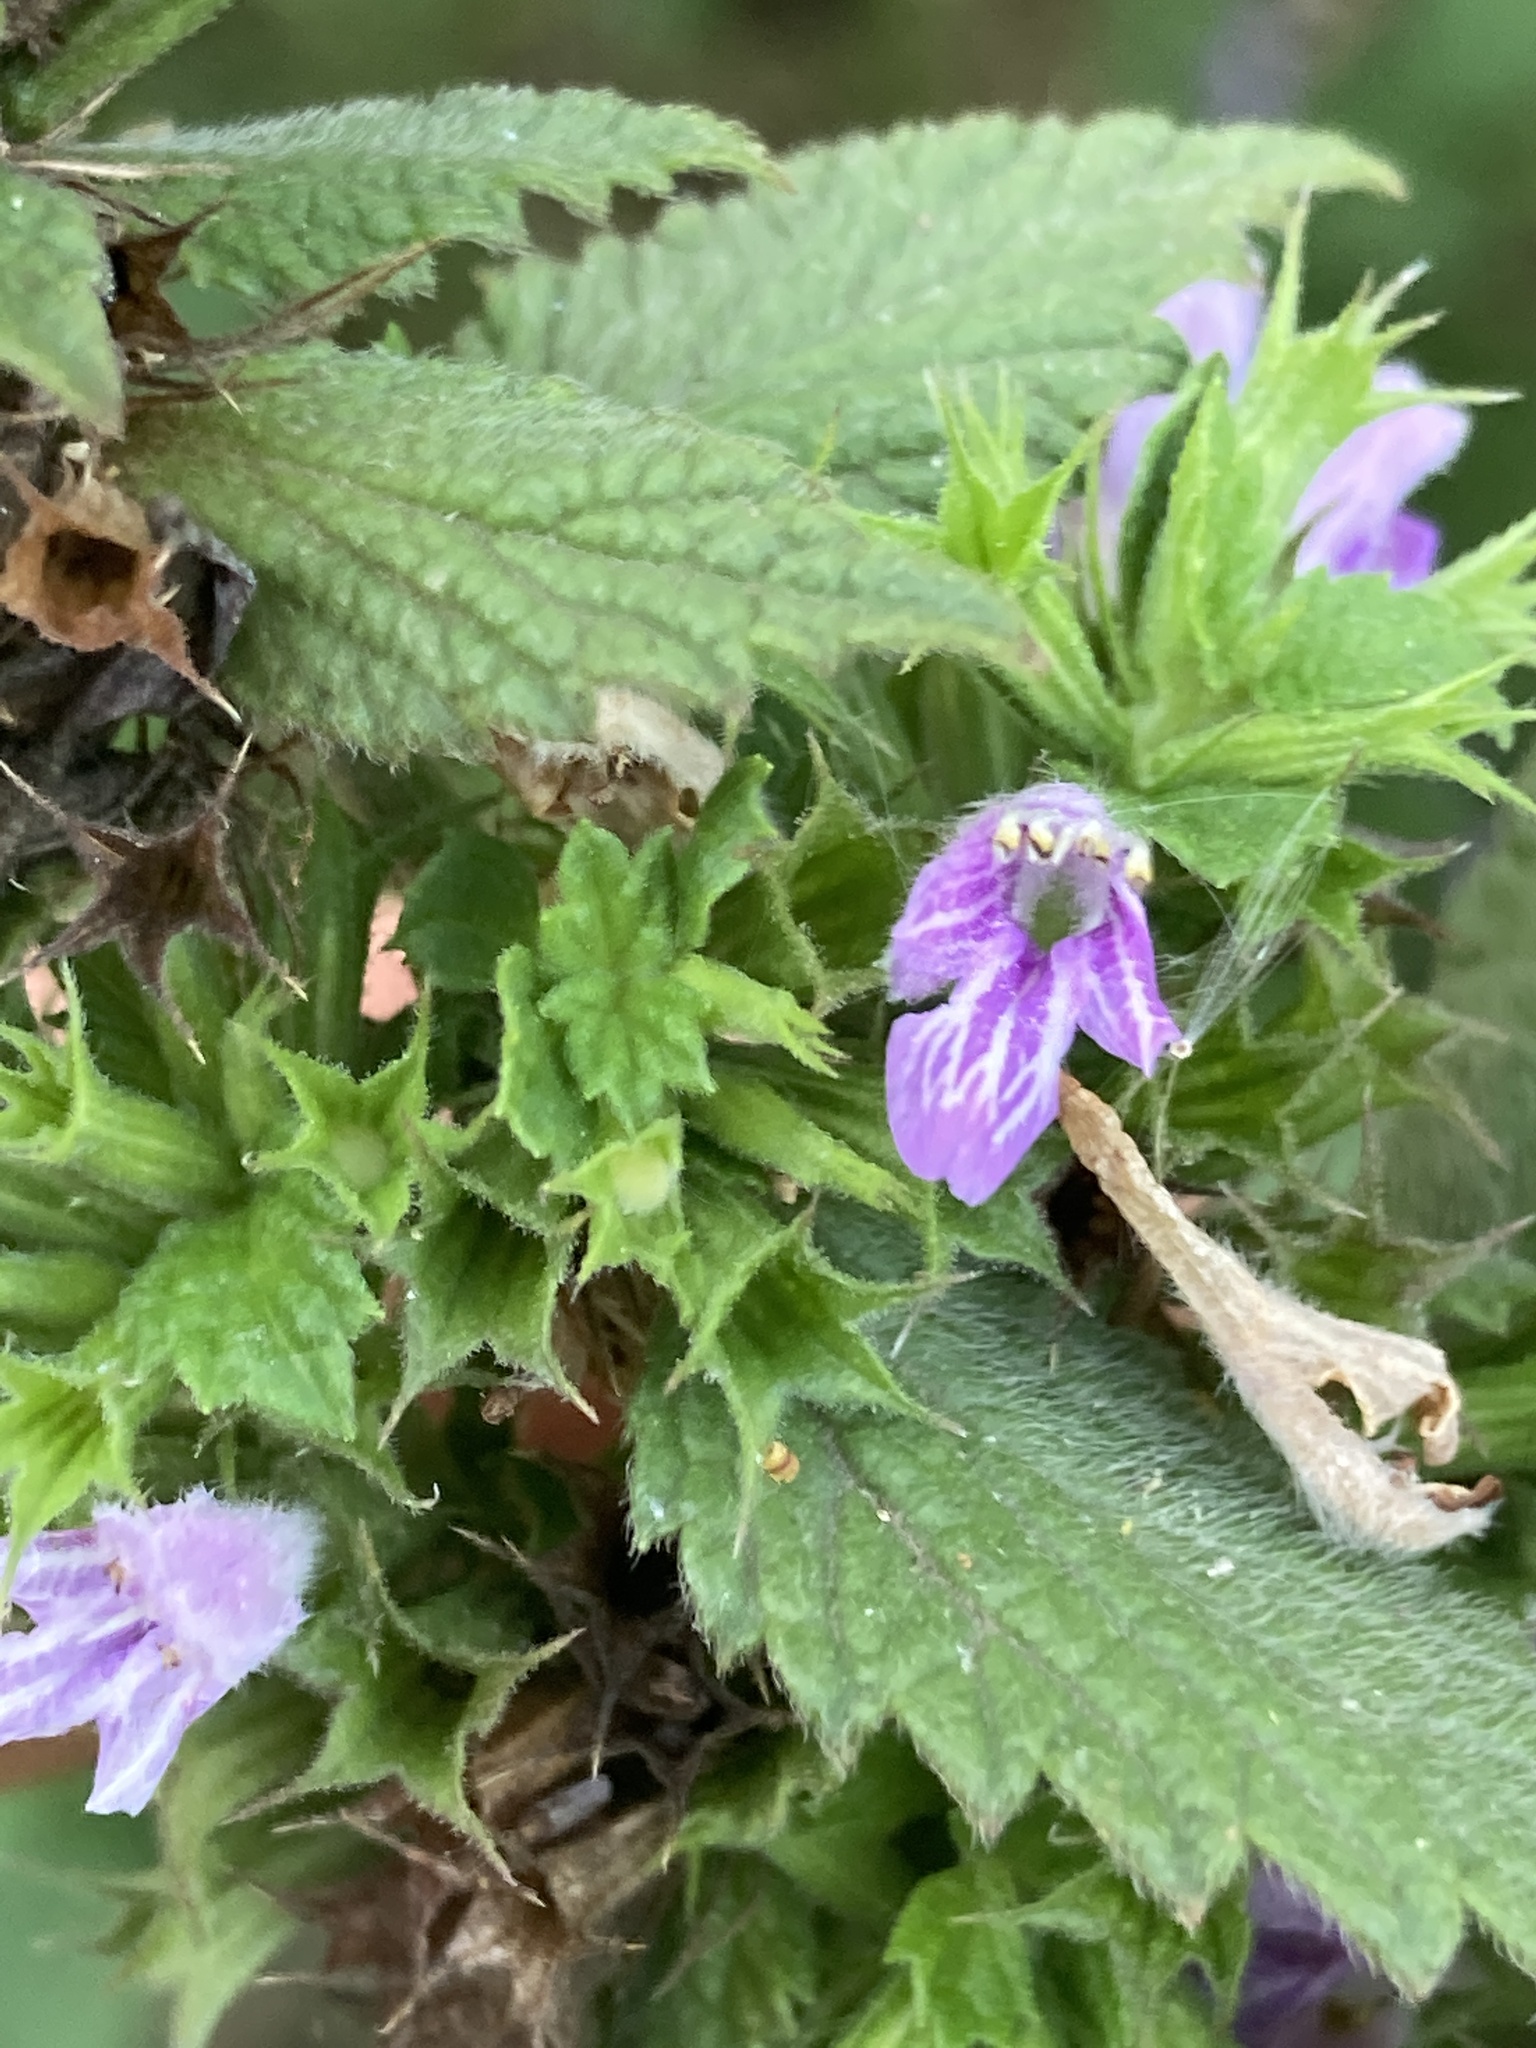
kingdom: Plantae
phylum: Tracheophyta
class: Magnoliopsida
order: Lamiales
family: Lamiaceae
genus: Ballota
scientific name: Ballota nigra
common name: Black horehound
